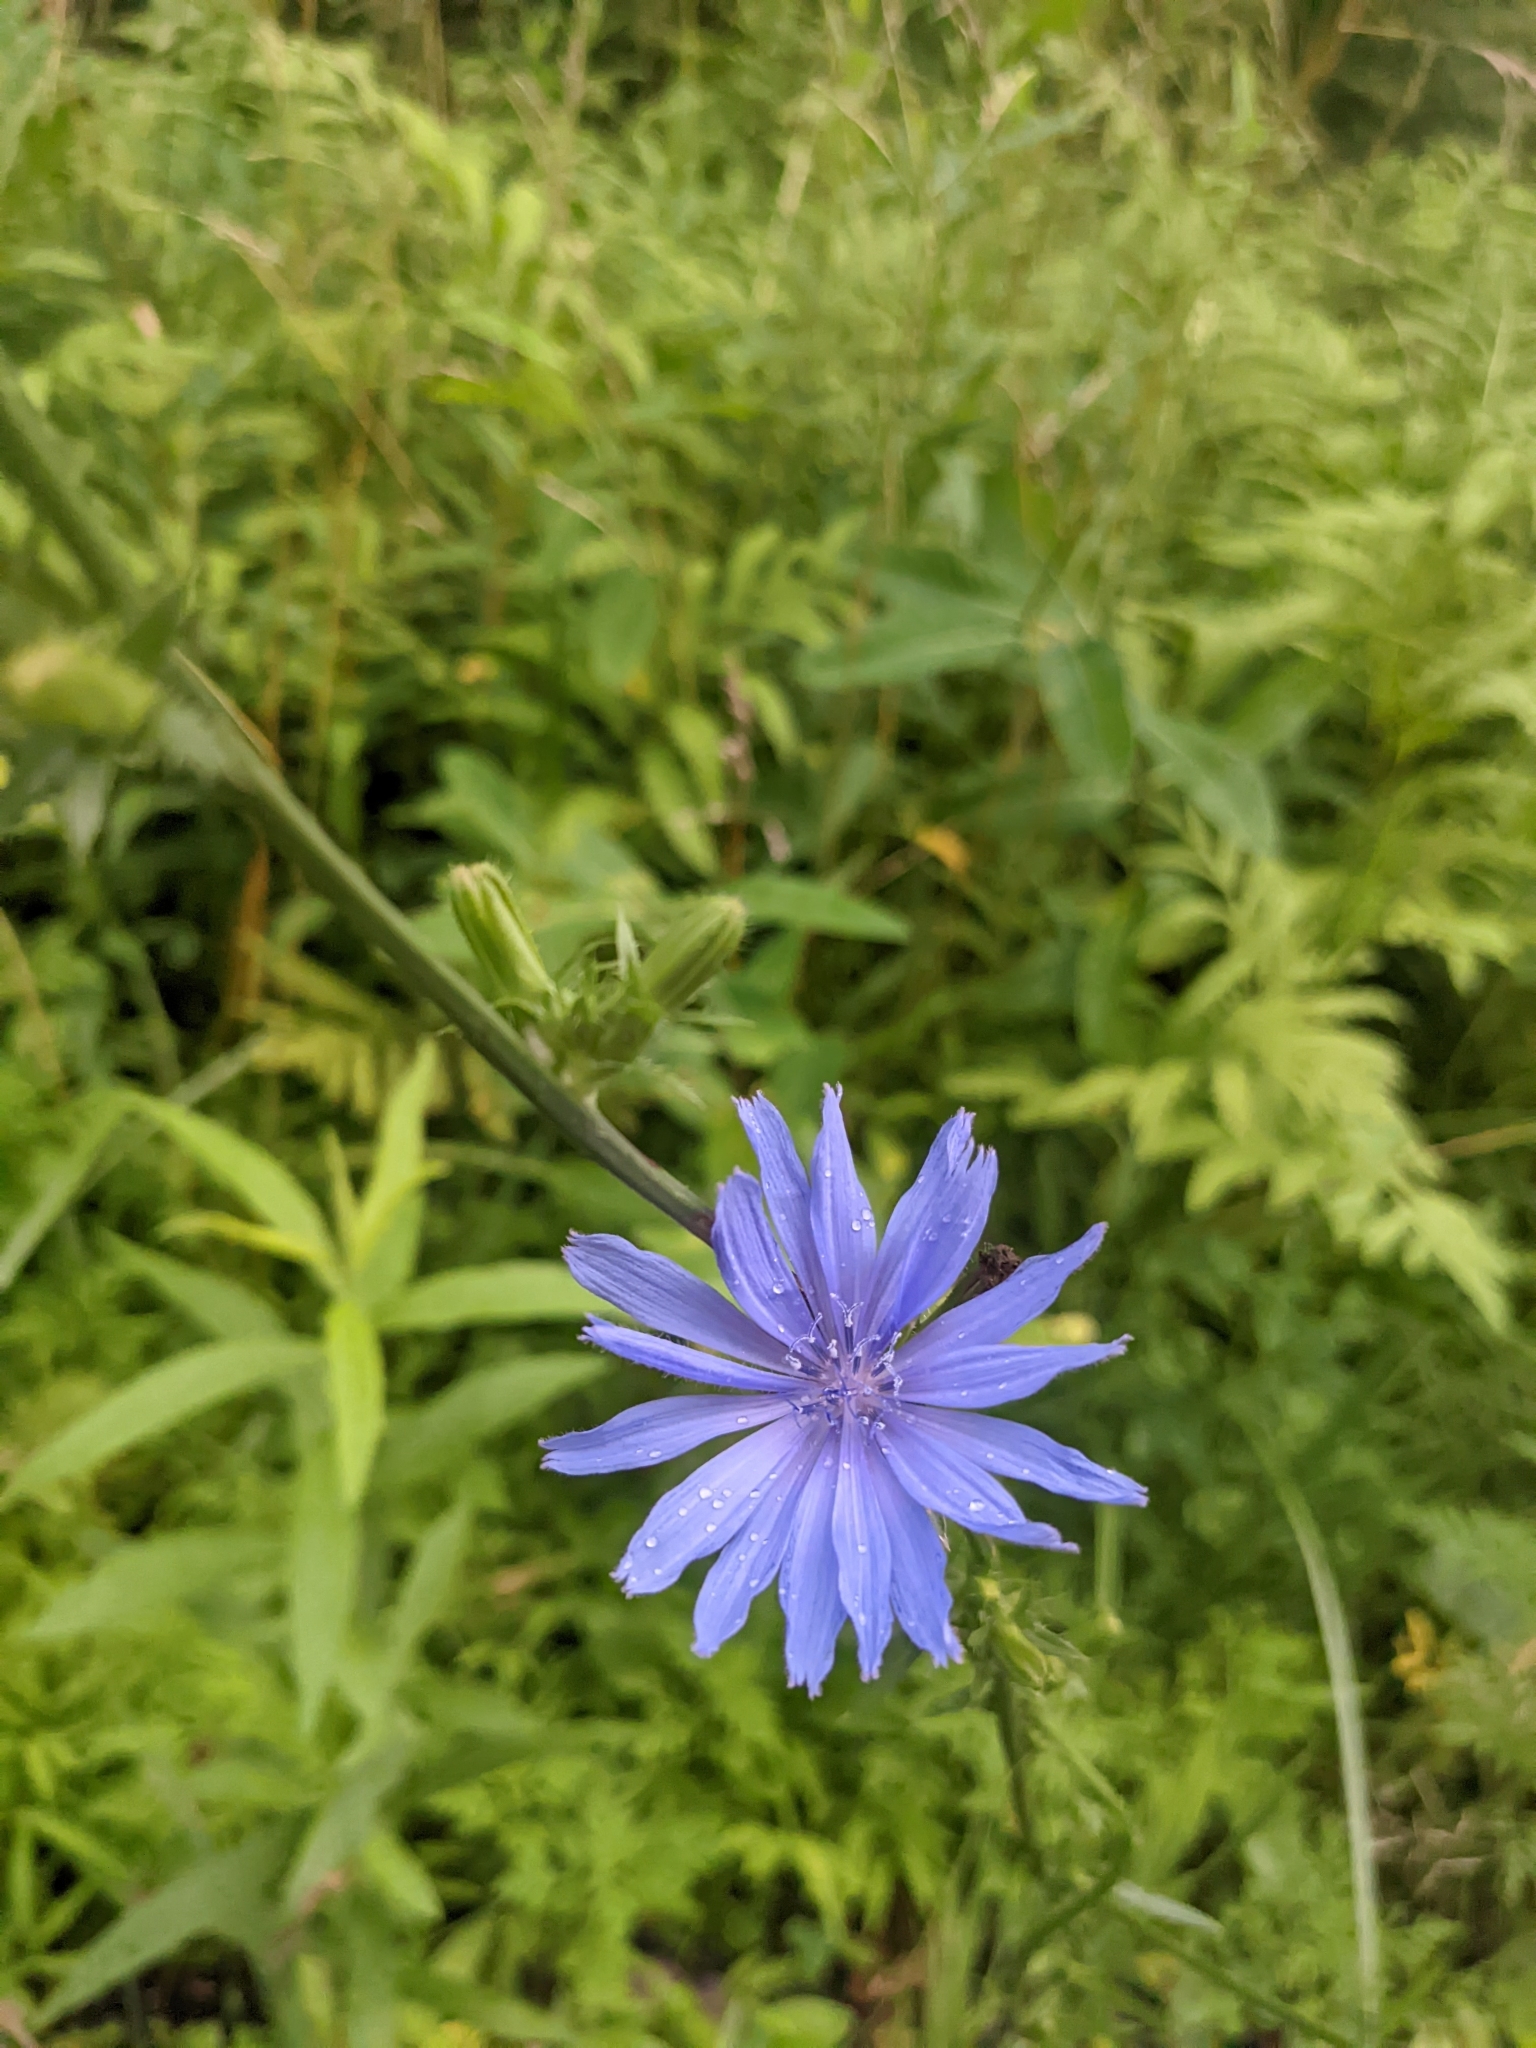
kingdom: Plantae
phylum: Tracheophyta
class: Magnoliopsida
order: Asterales
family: Asteraceae
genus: Cichorium
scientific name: Cichorium intybus
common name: Chicory
